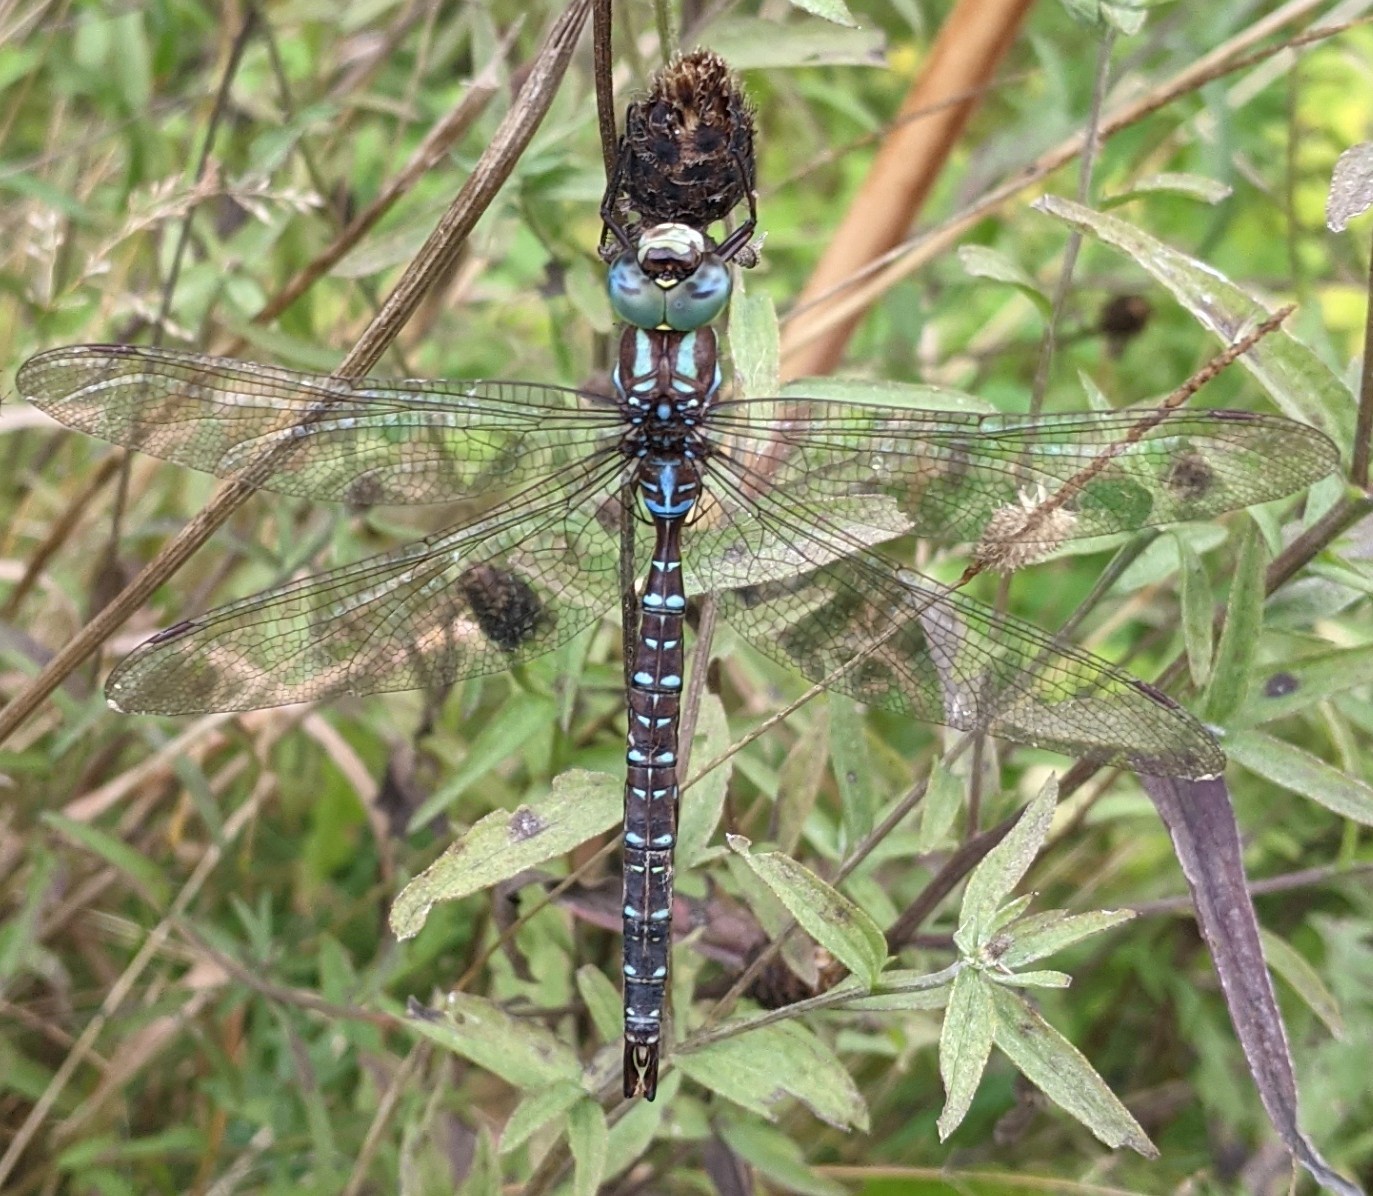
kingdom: Animalia
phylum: Arthropoda
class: Insecta
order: Odonata
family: Aeshnidae
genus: Aeshna
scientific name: Aeshna umbrosa
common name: Shadow darner
